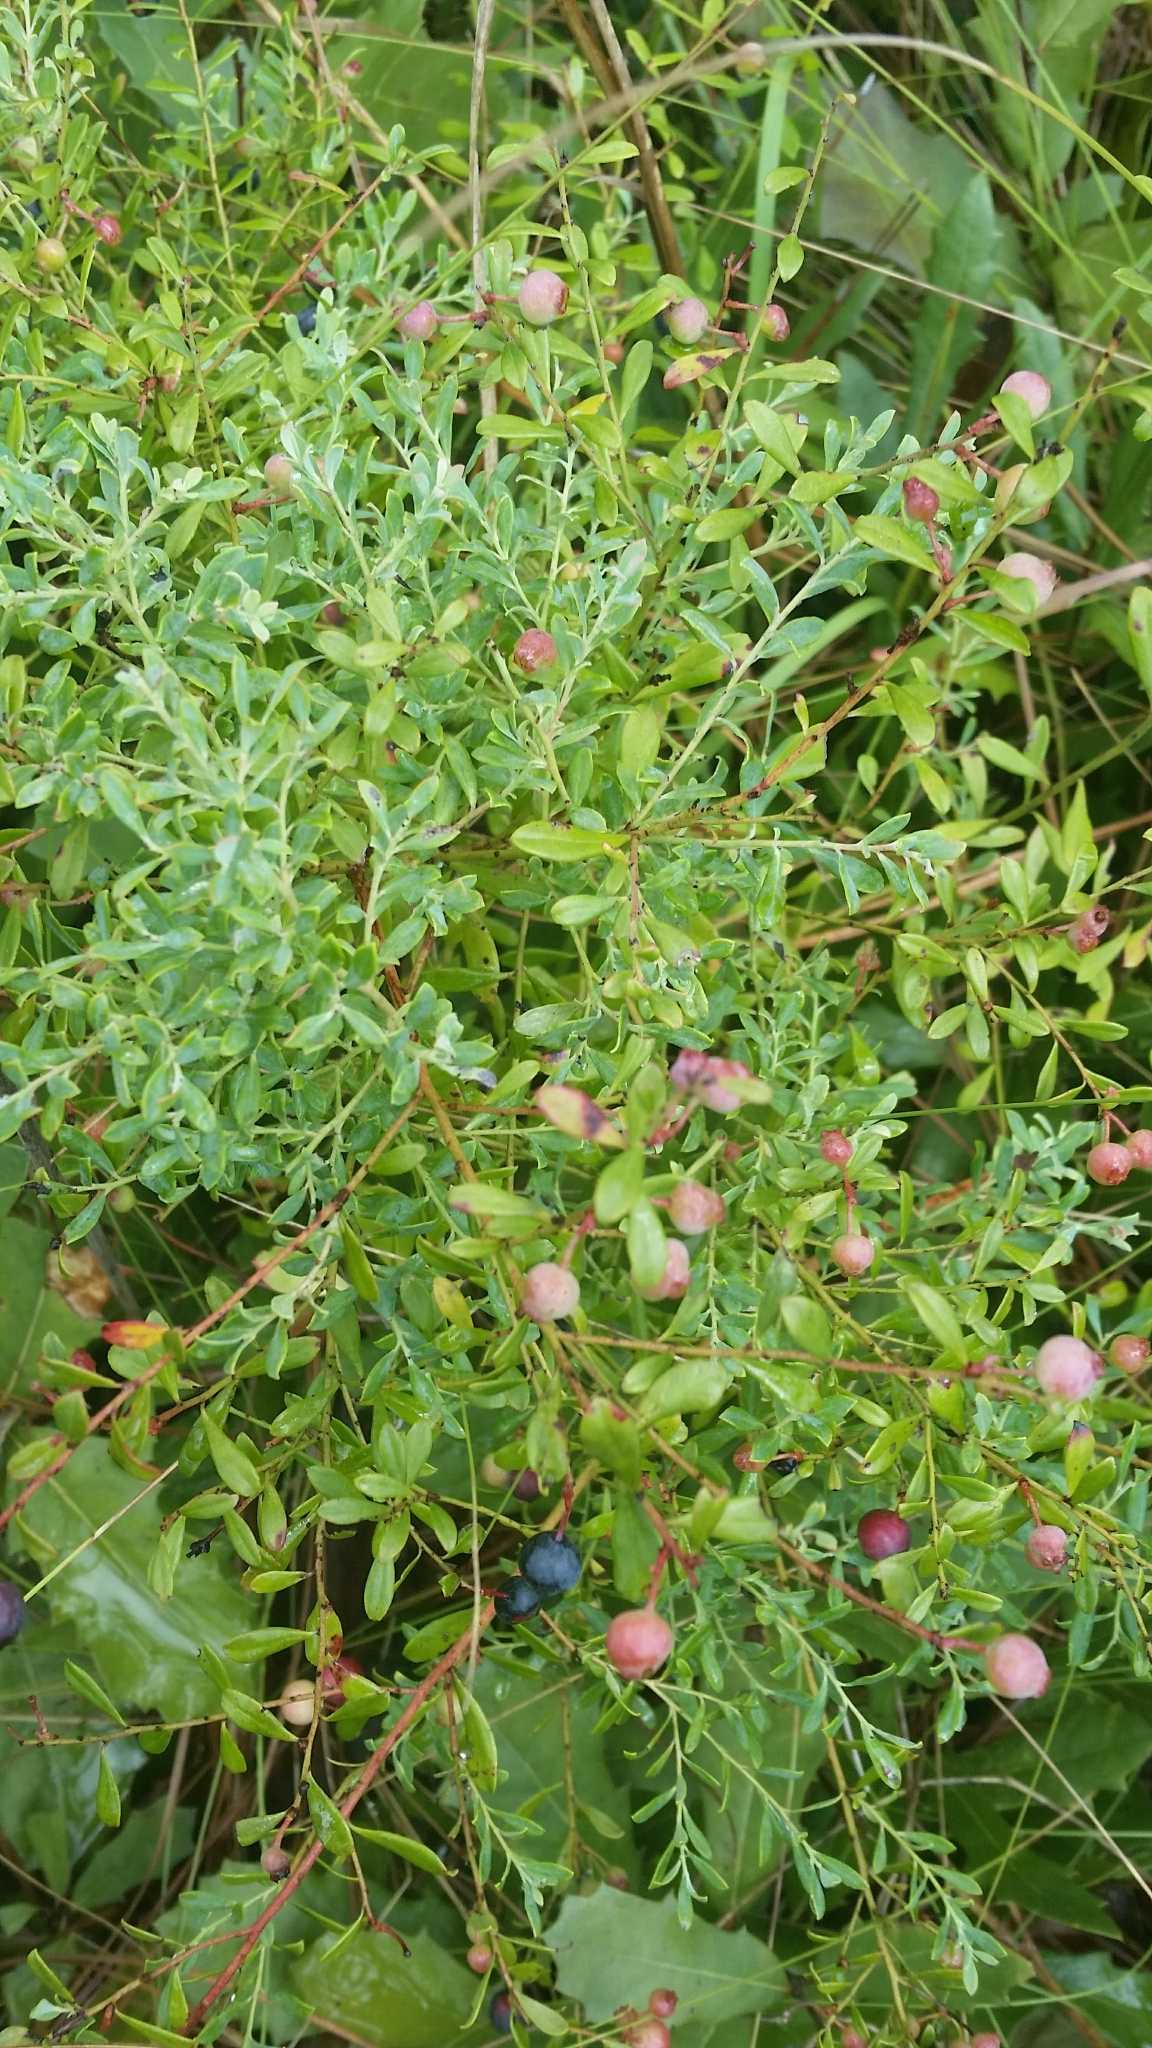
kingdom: Plantae
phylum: Tracheophyta
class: Magnoliopsida
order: Ericales
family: Ericaceae
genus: Vaccinium
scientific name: Vaccinium darrowii
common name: Darrow's blueberry
